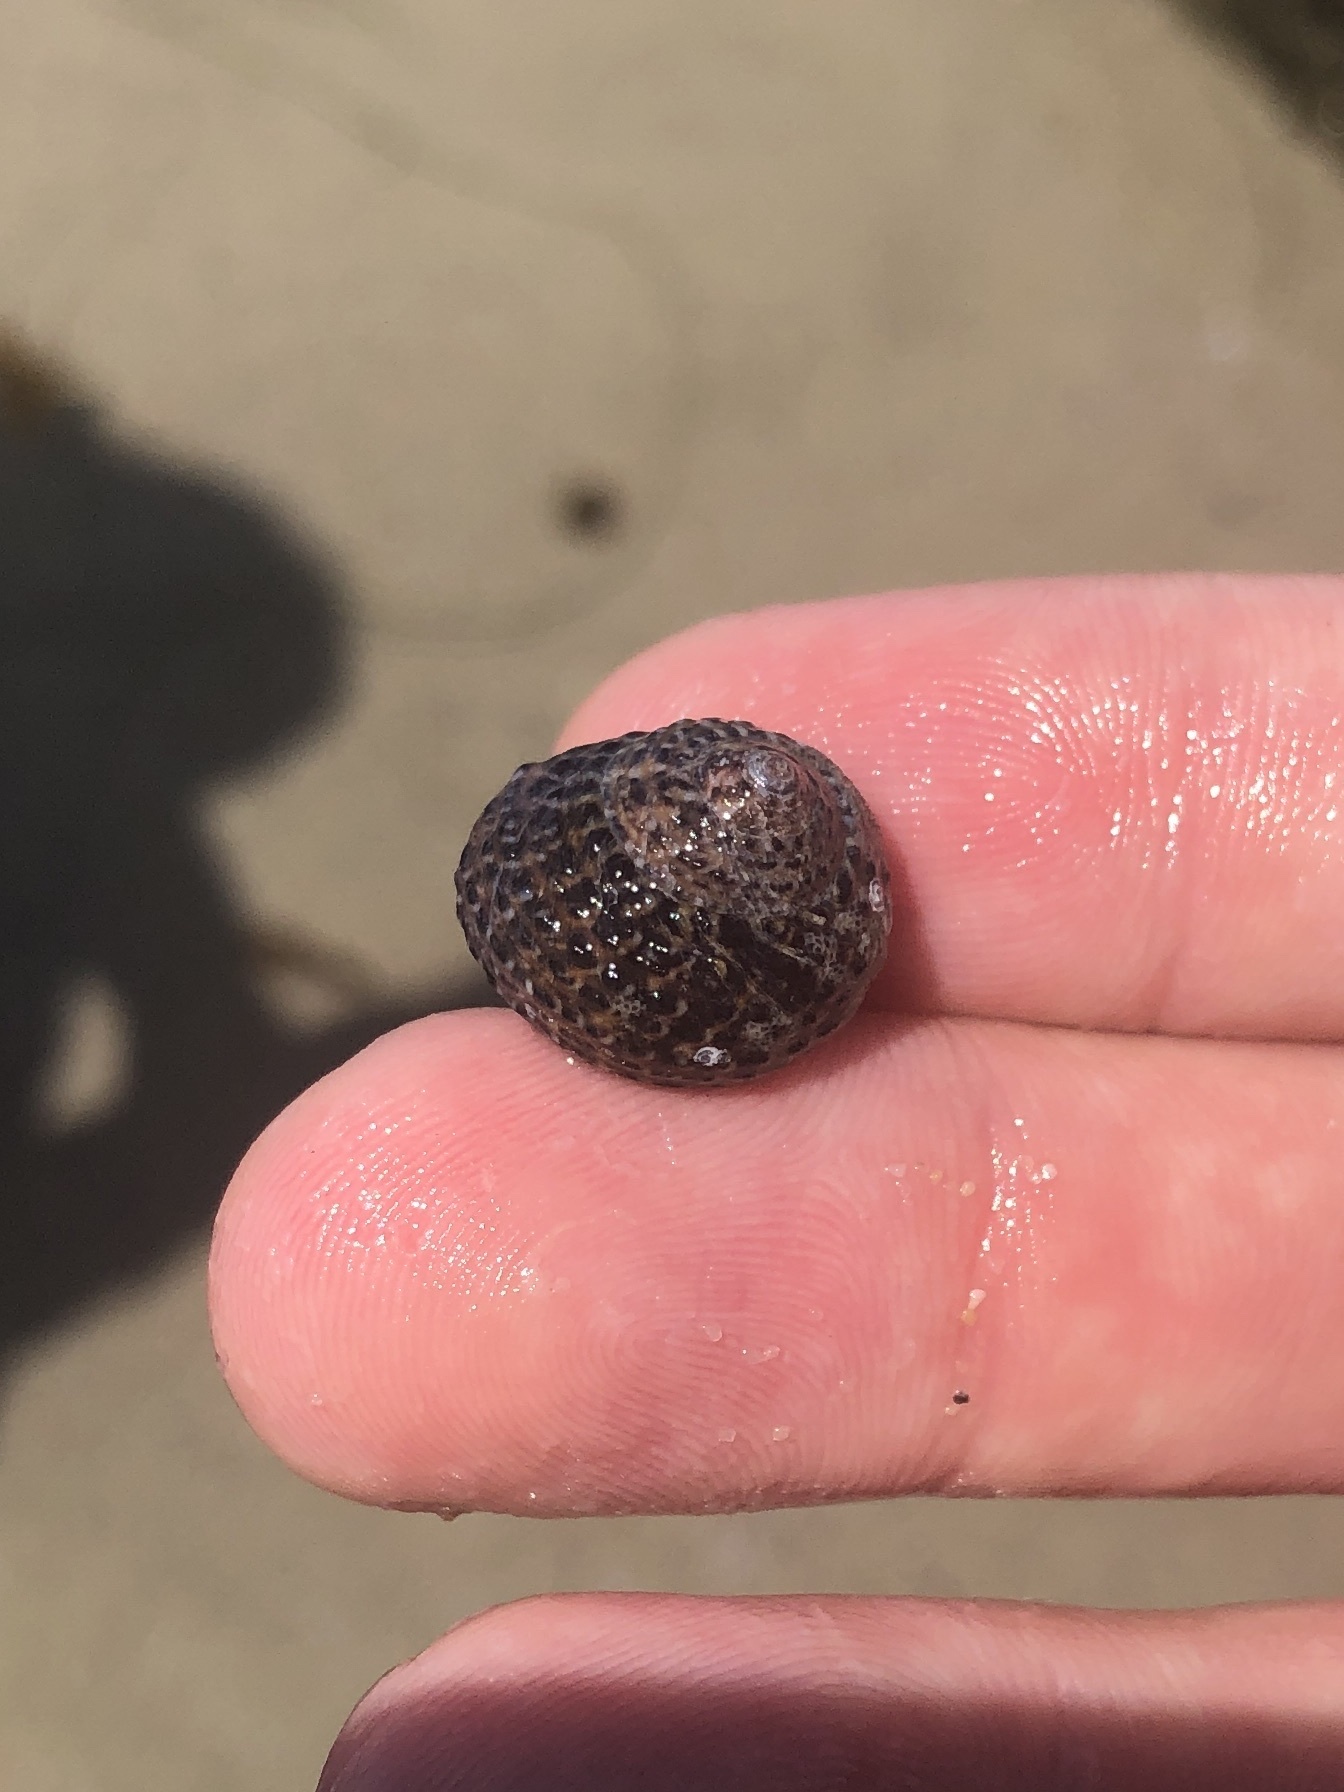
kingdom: Animalia
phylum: Mollusca
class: Gastropoda
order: Trochida
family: Tegulidae
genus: Tegula
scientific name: Tegula eiseni
